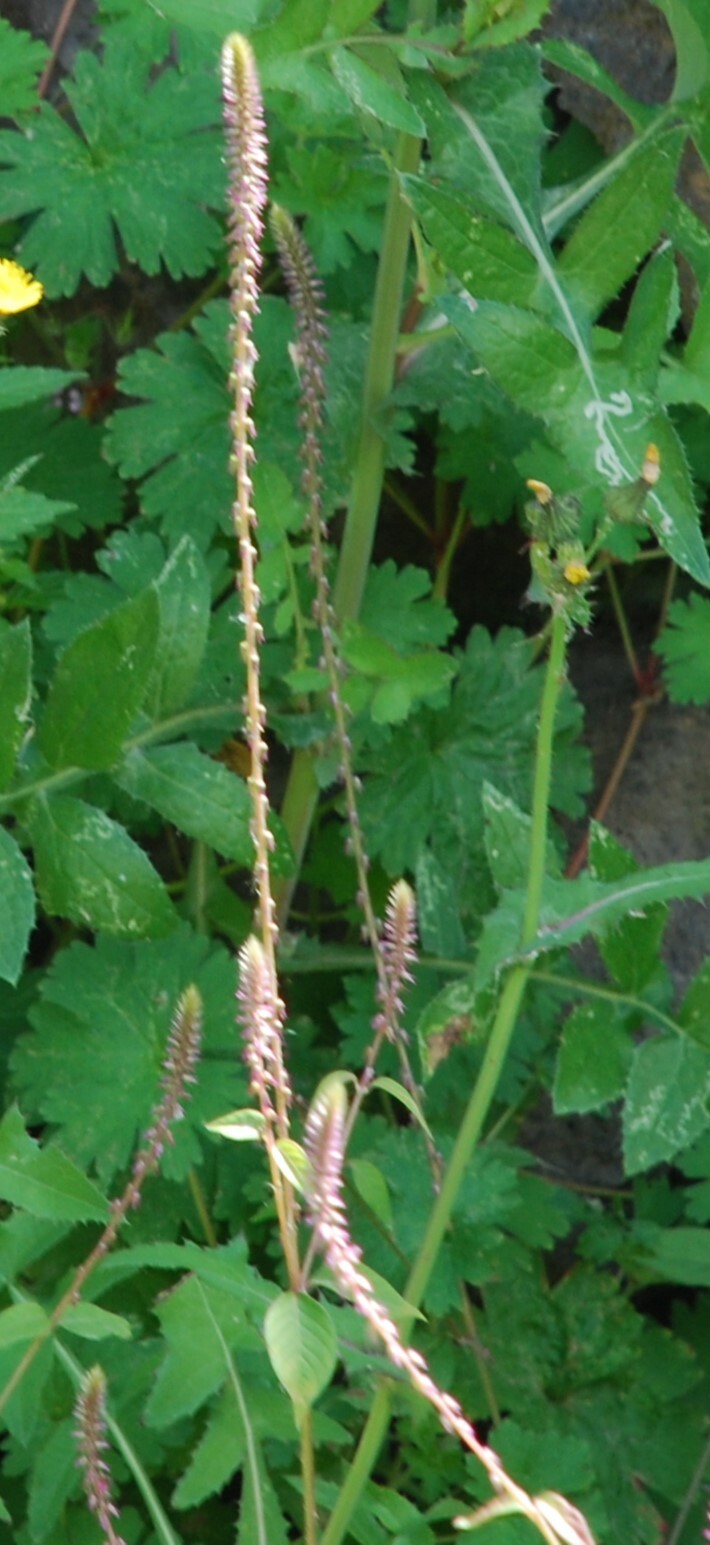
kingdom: Plantae
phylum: Tracheophyta
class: Magnoliopsida
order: Caryophyllales
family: Amaranthaceae
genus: Achyranthes
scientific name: Achyranthes aspera
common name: Devil's horsewhip
